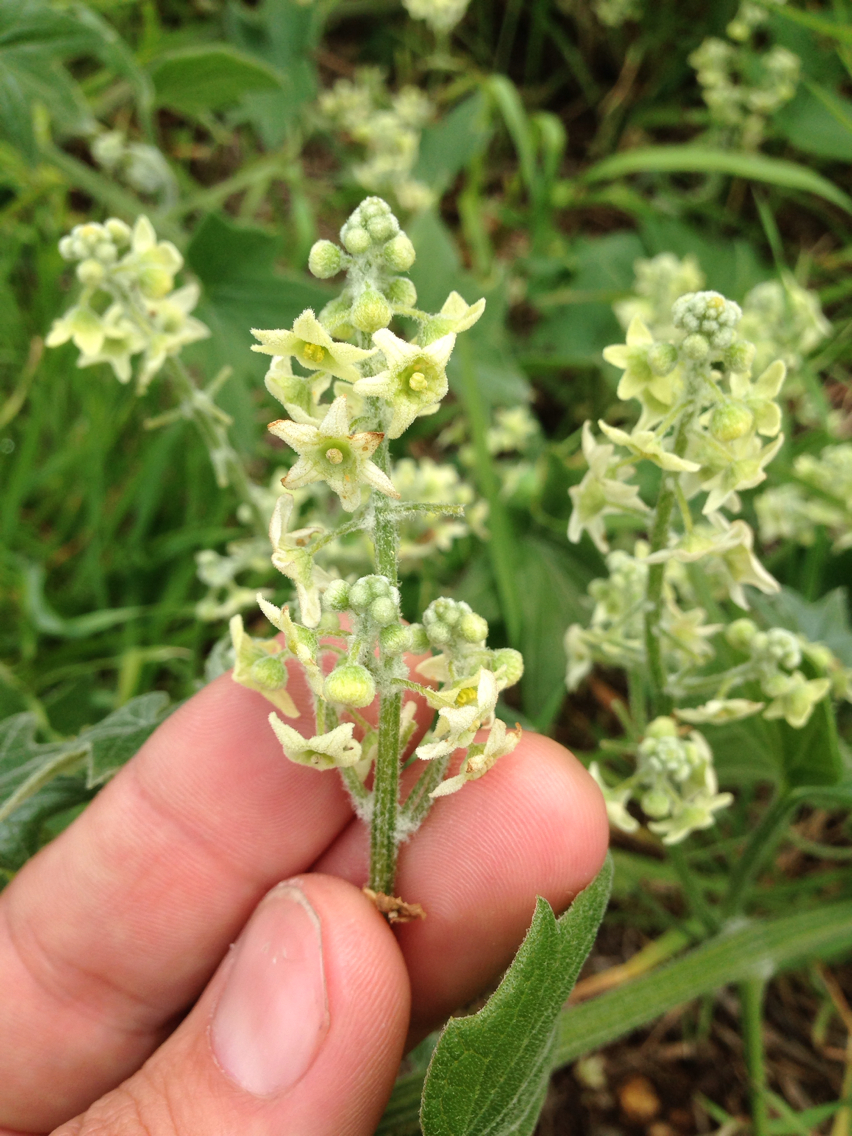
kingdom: Plantae
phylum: Tracheophyta
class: Magnoliopsida
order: Cucurbitales
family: Cucurbitaceae
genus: Marah
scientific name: Marah fabacea
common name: California manroot
